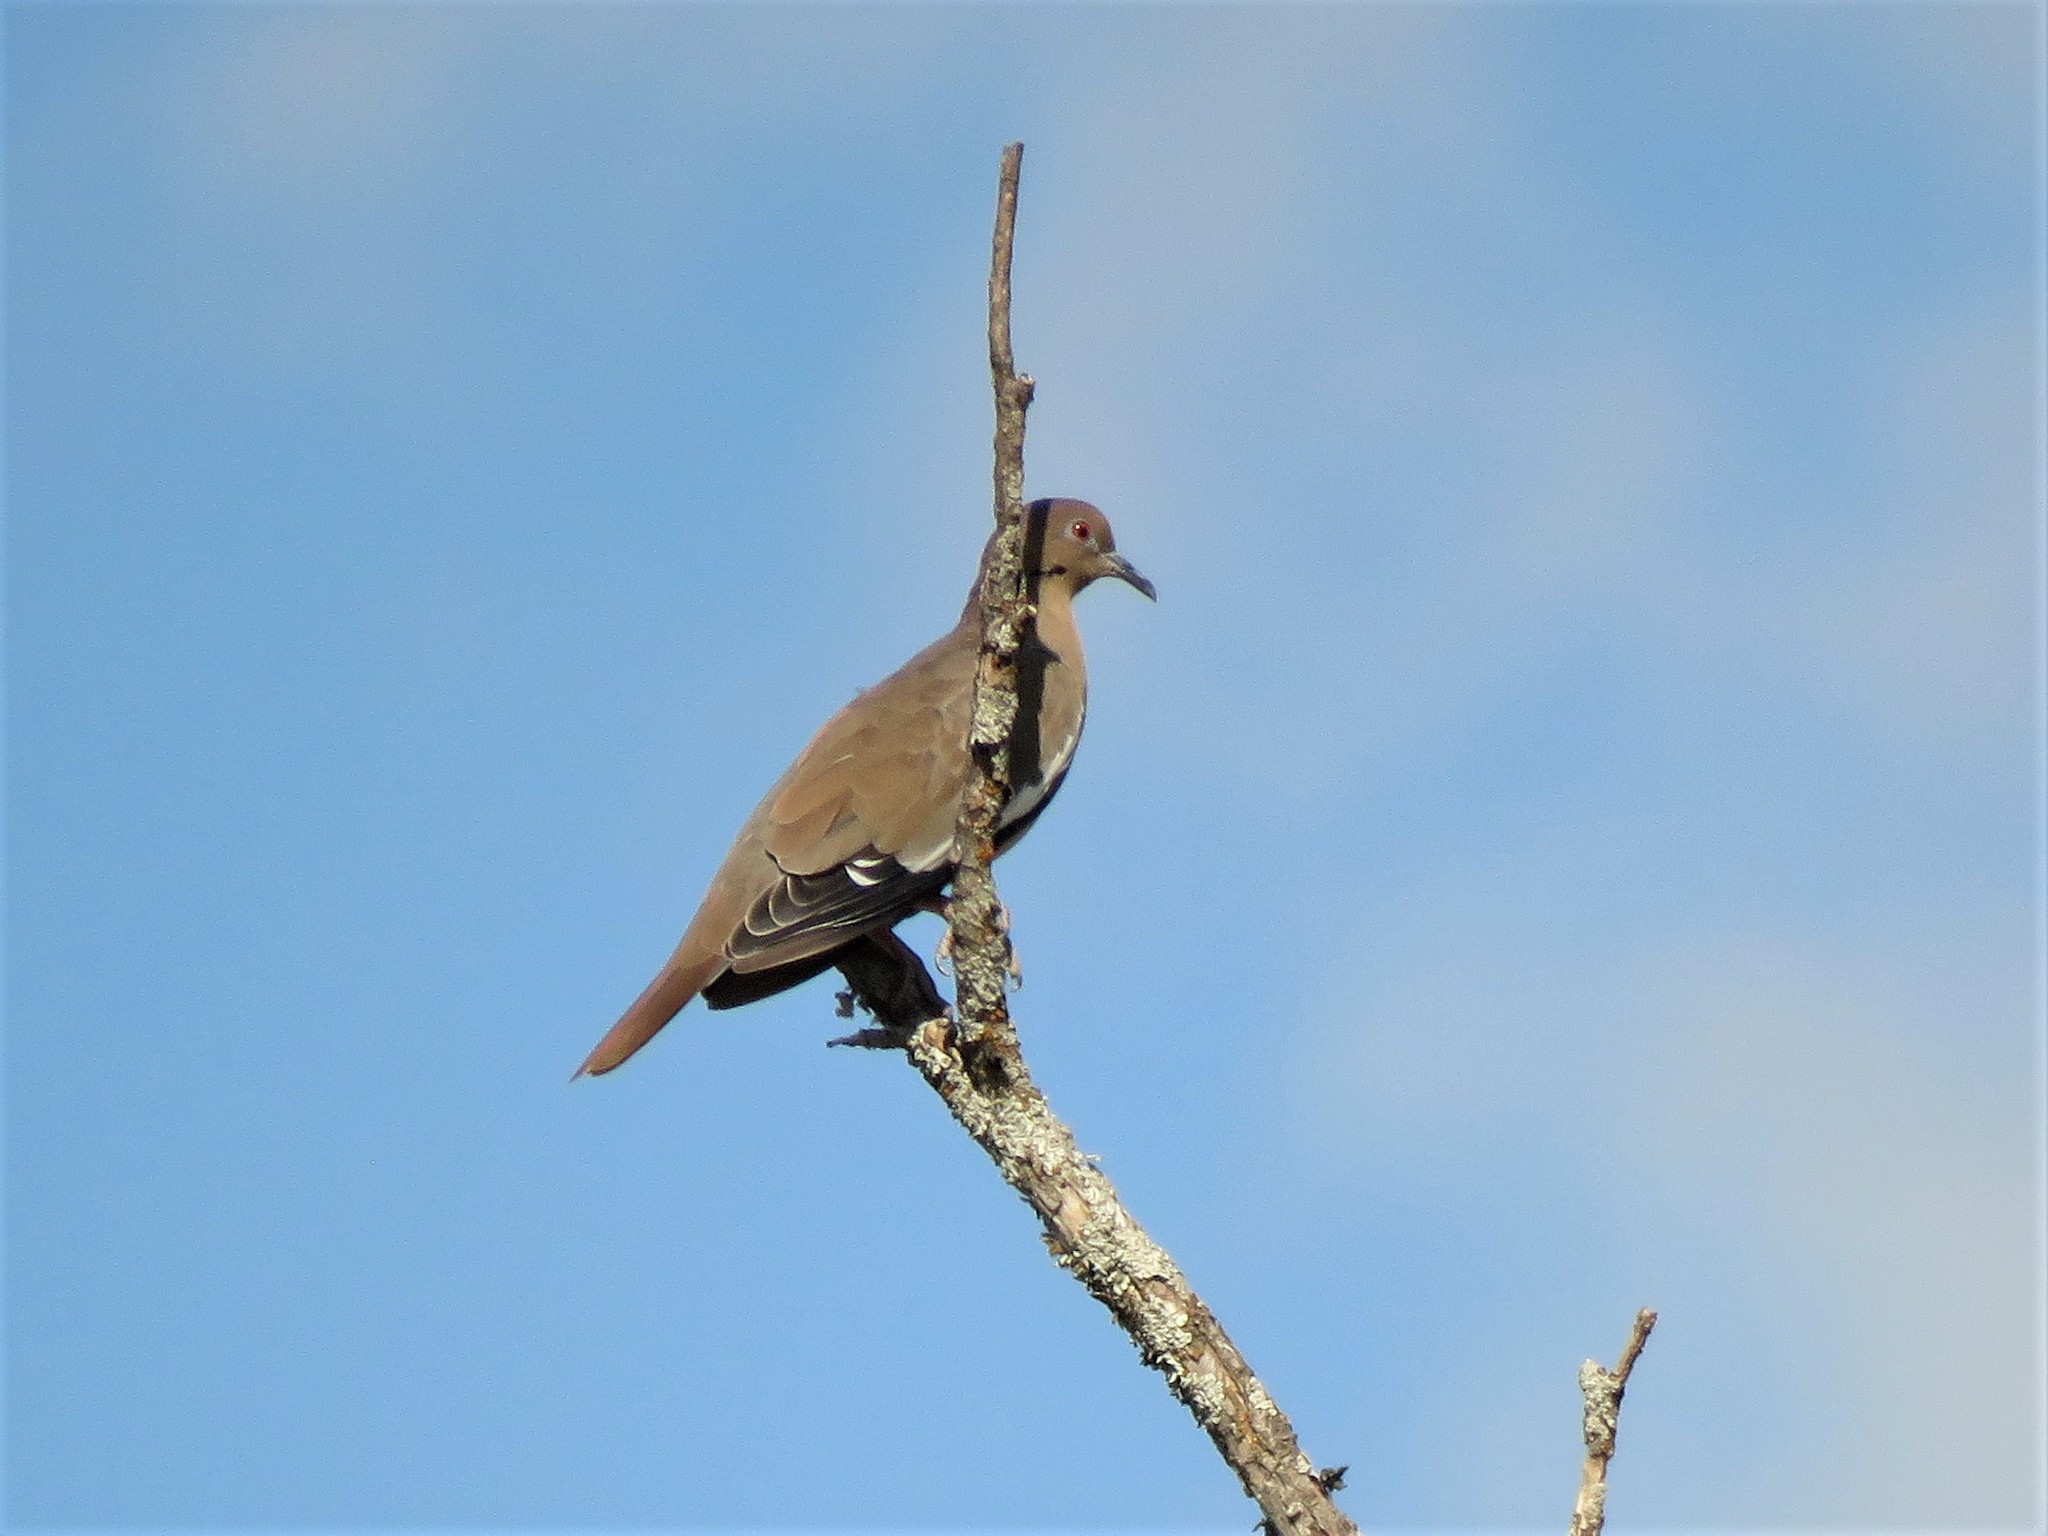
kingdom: Animalia
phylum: Chordata
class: Aves
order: Columbiformes
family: Columbidae
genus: Zenaida
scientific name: Zenaida asiatica
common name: White-winged dove
